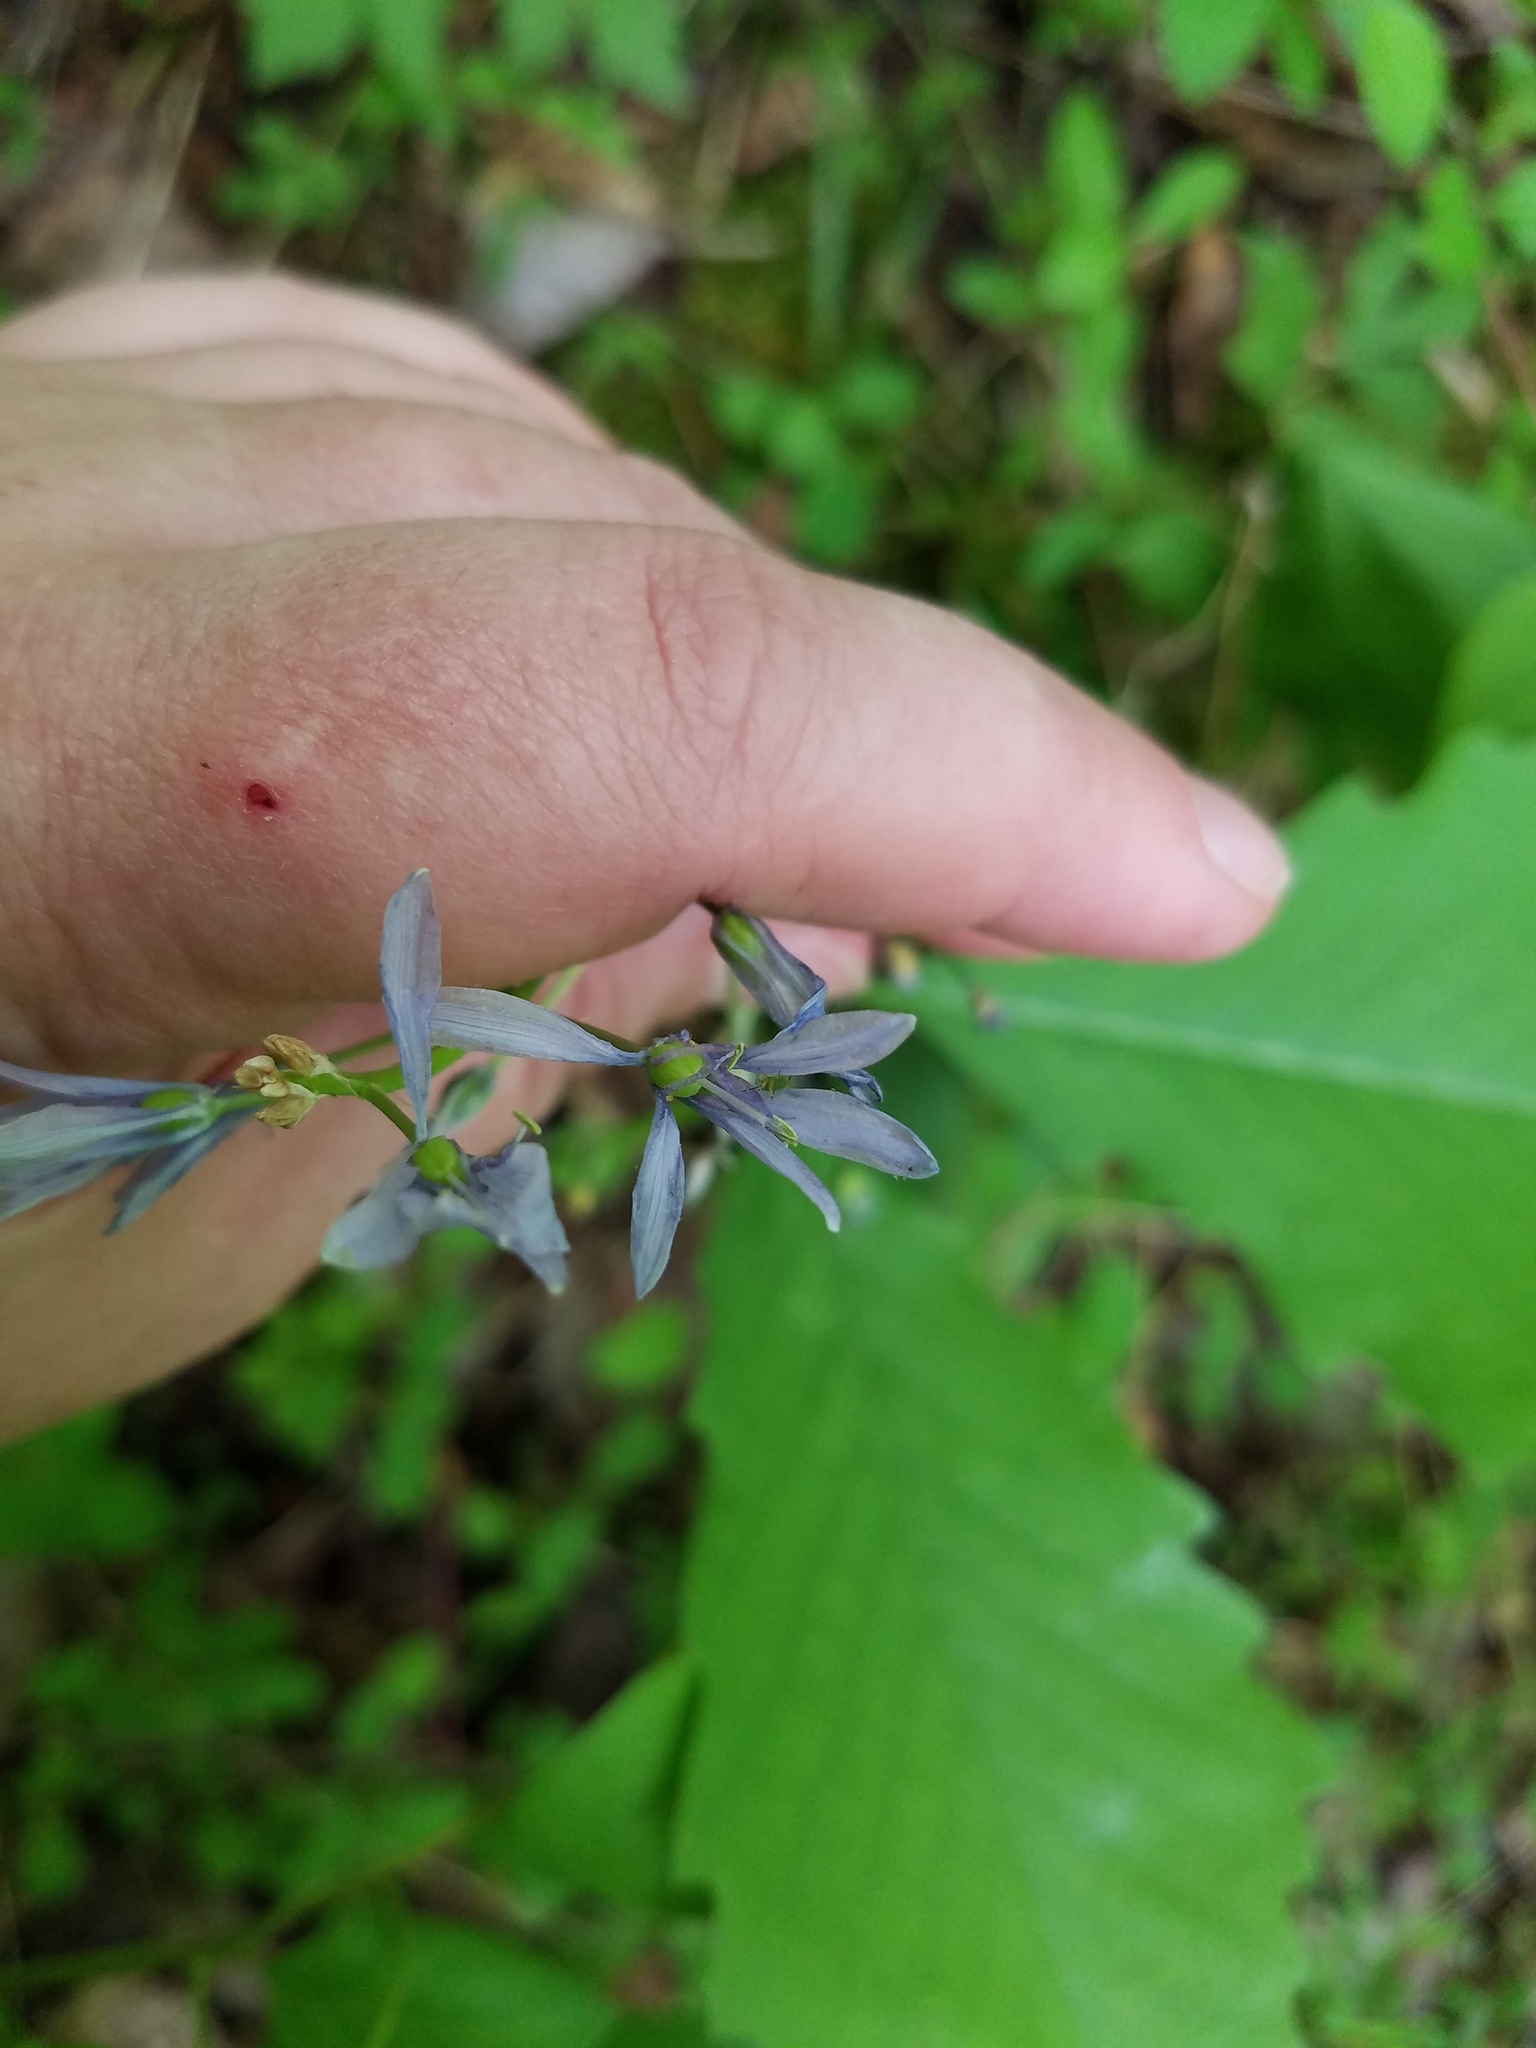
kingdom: Plantae
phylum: Tracheophyta
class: Liliopsida
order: Asparagales
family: Asparagaceae
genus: Camassia
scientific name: Camassia scilloides
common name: Wild hyacinth
